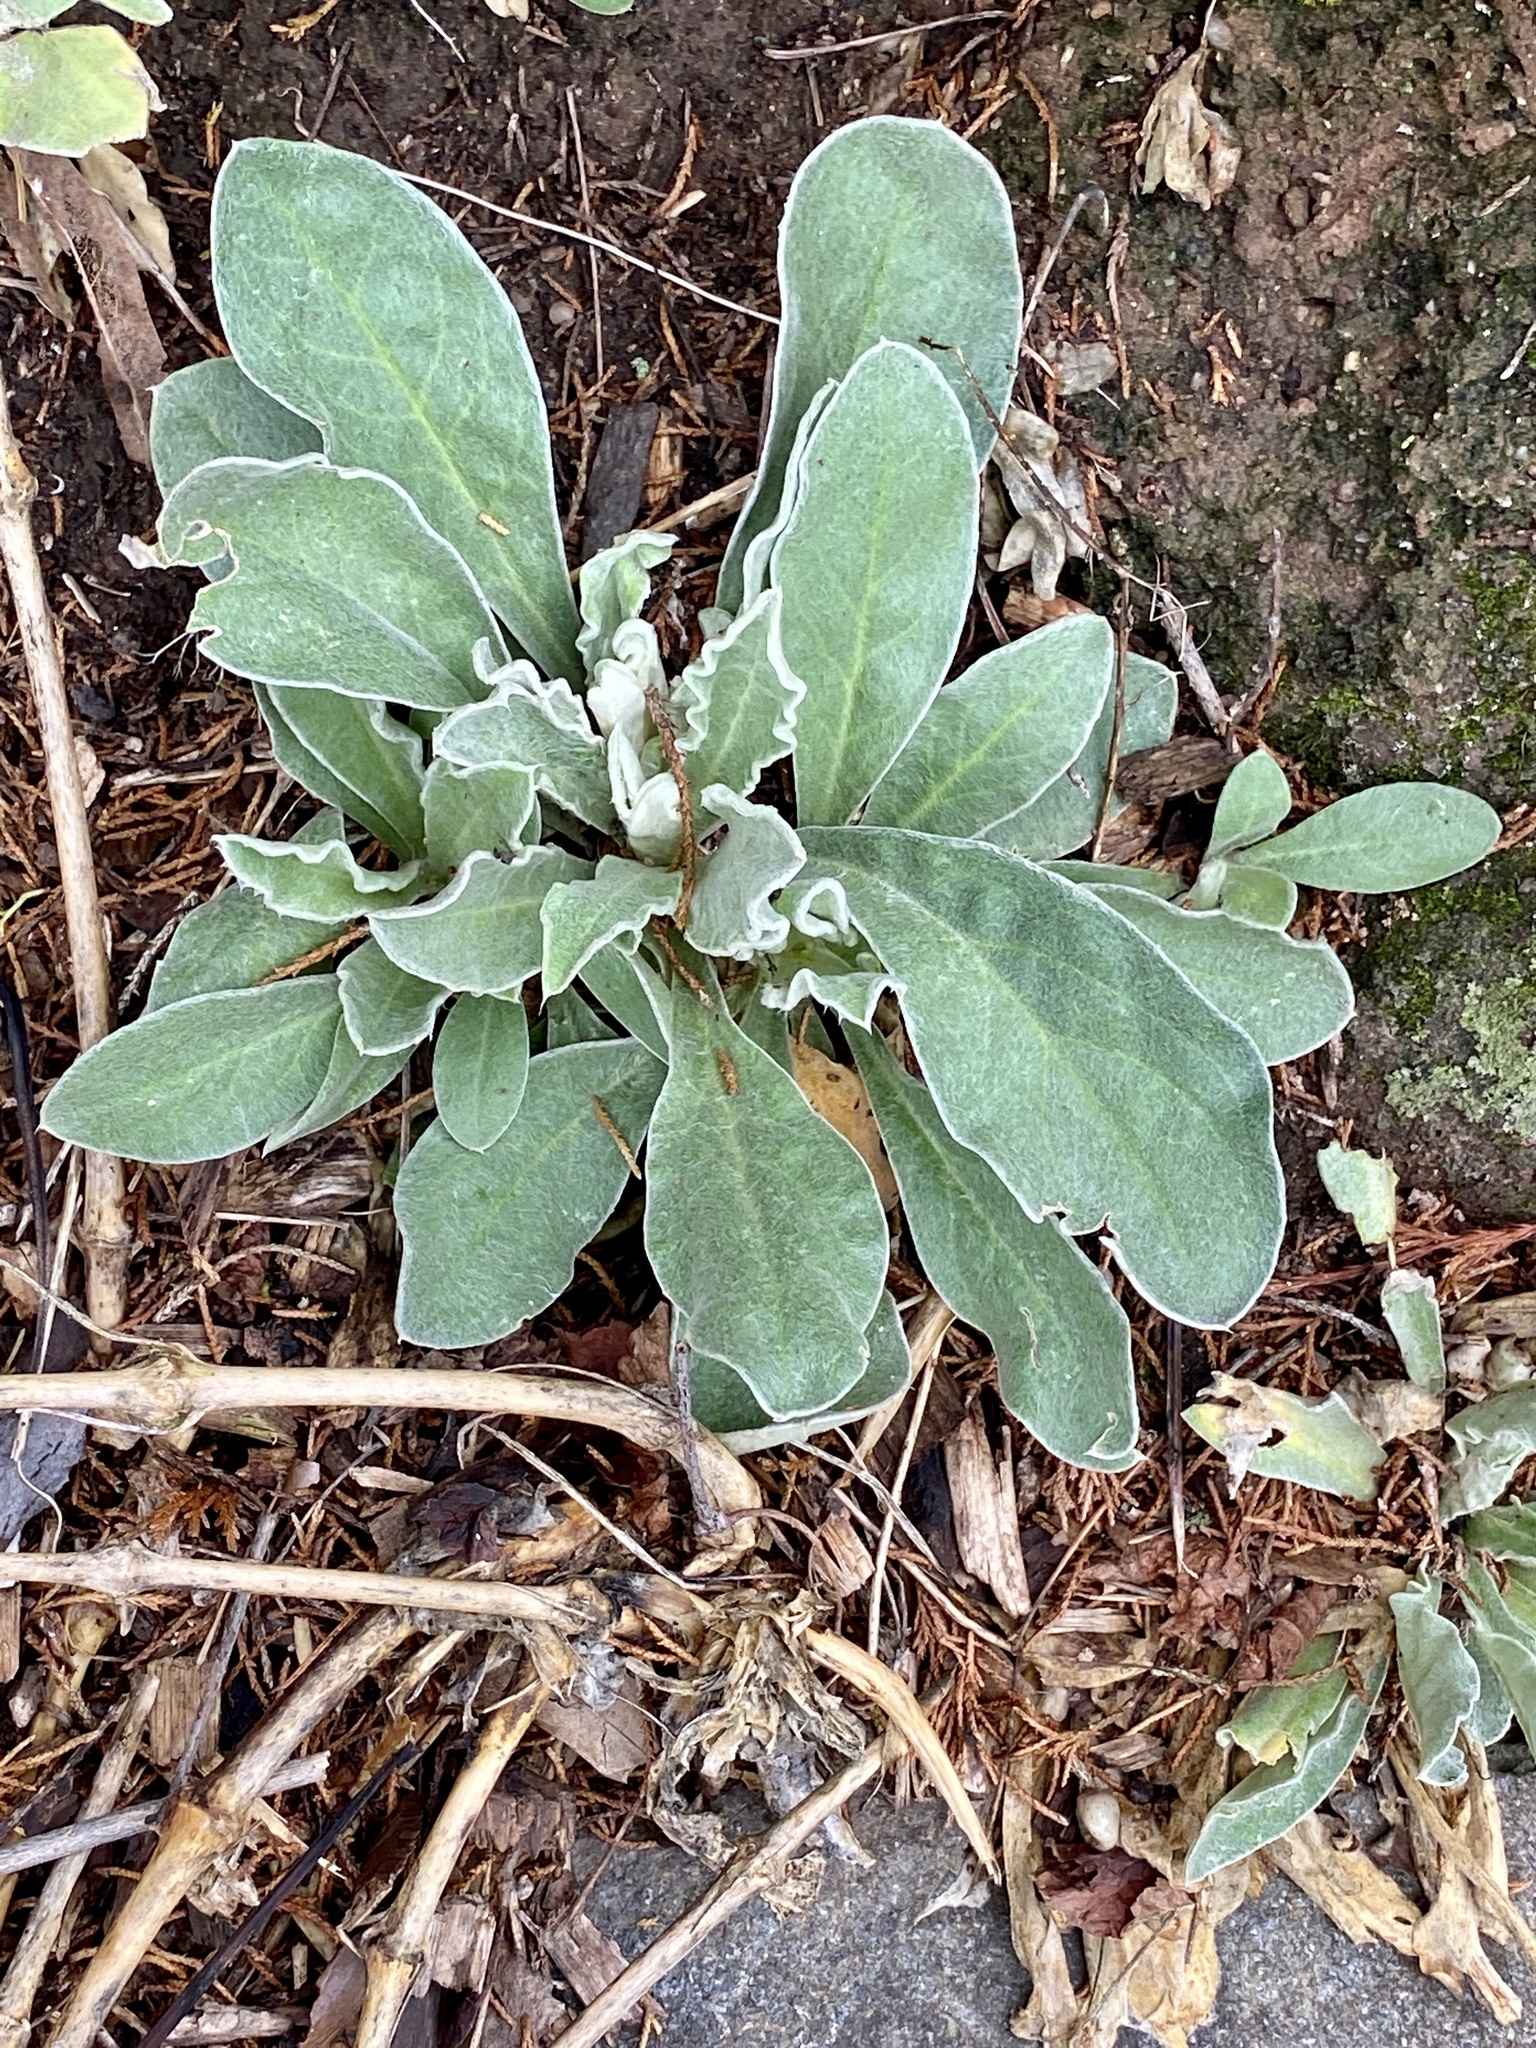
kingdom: Plantae
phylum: Tracheophyta
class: Magnoliopsida
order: Caryophyllales
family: Caryophyllaceae
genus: Silene
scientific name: Silene coronaria
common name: Rose campion
